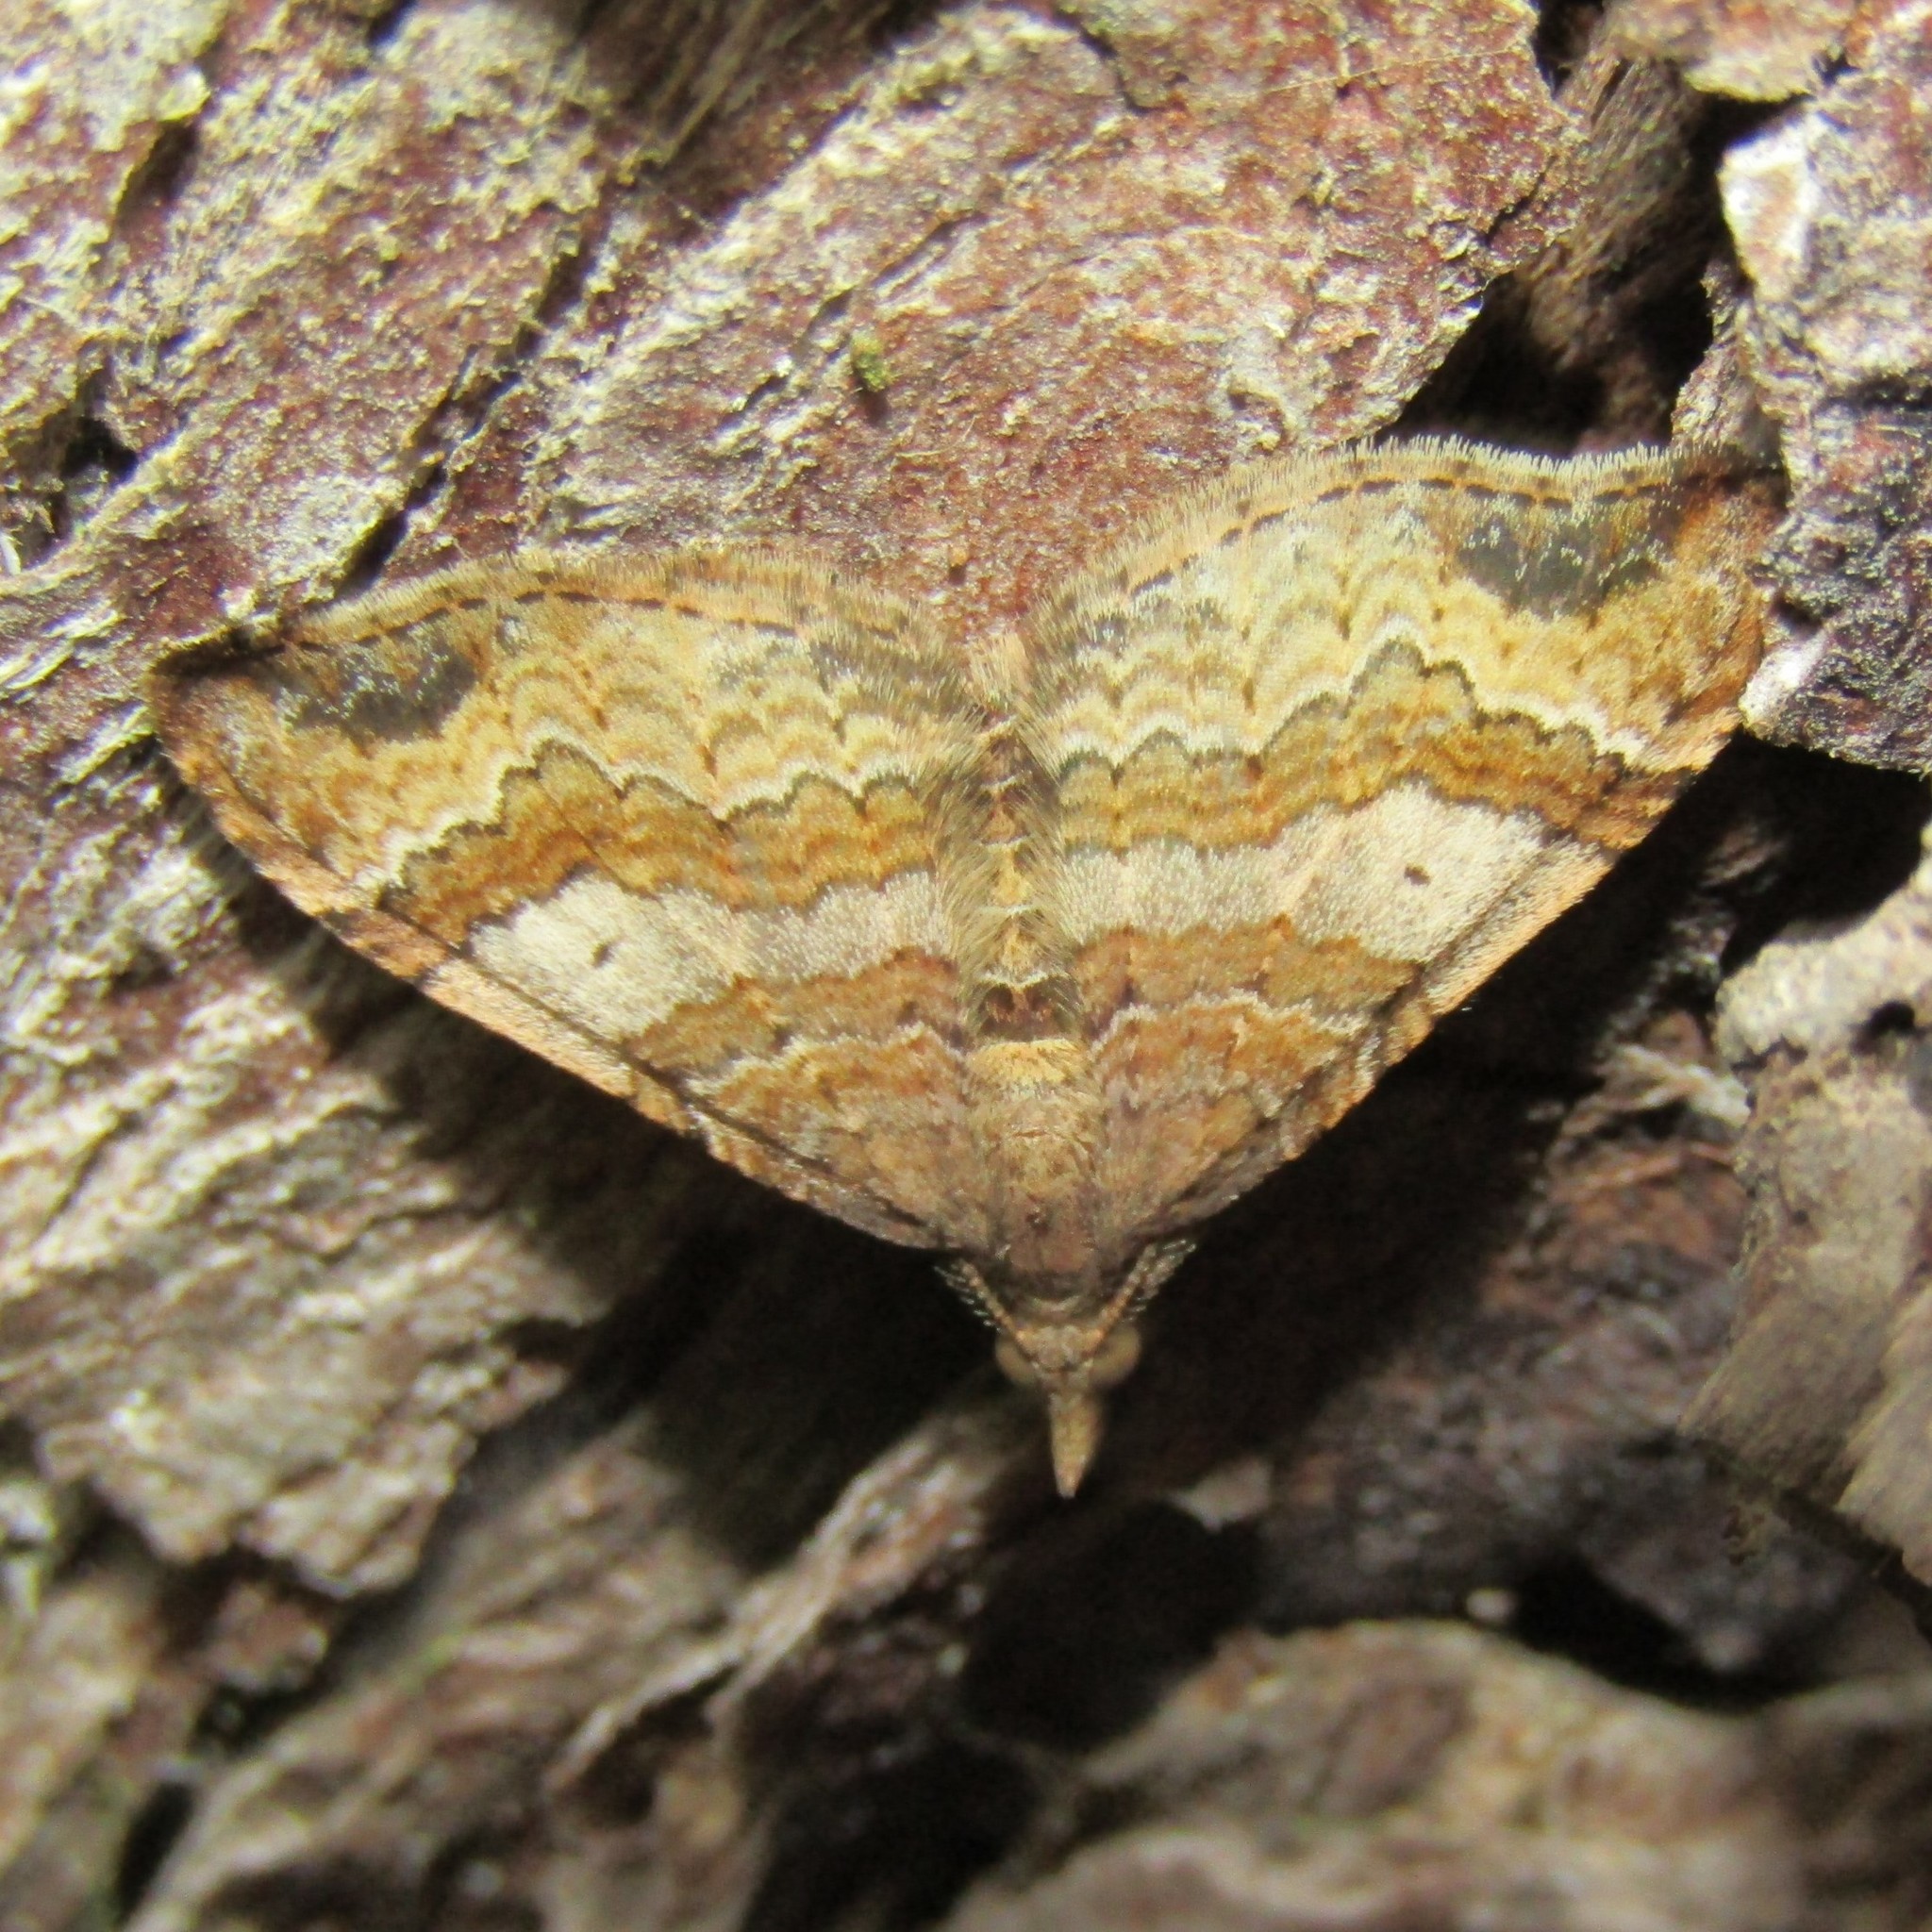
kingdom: Animalia
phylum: Arthropoda
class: Insecta
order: Lepidoptera
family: Geometridae
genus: Homodotis
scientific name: Homodotis megaspilata
